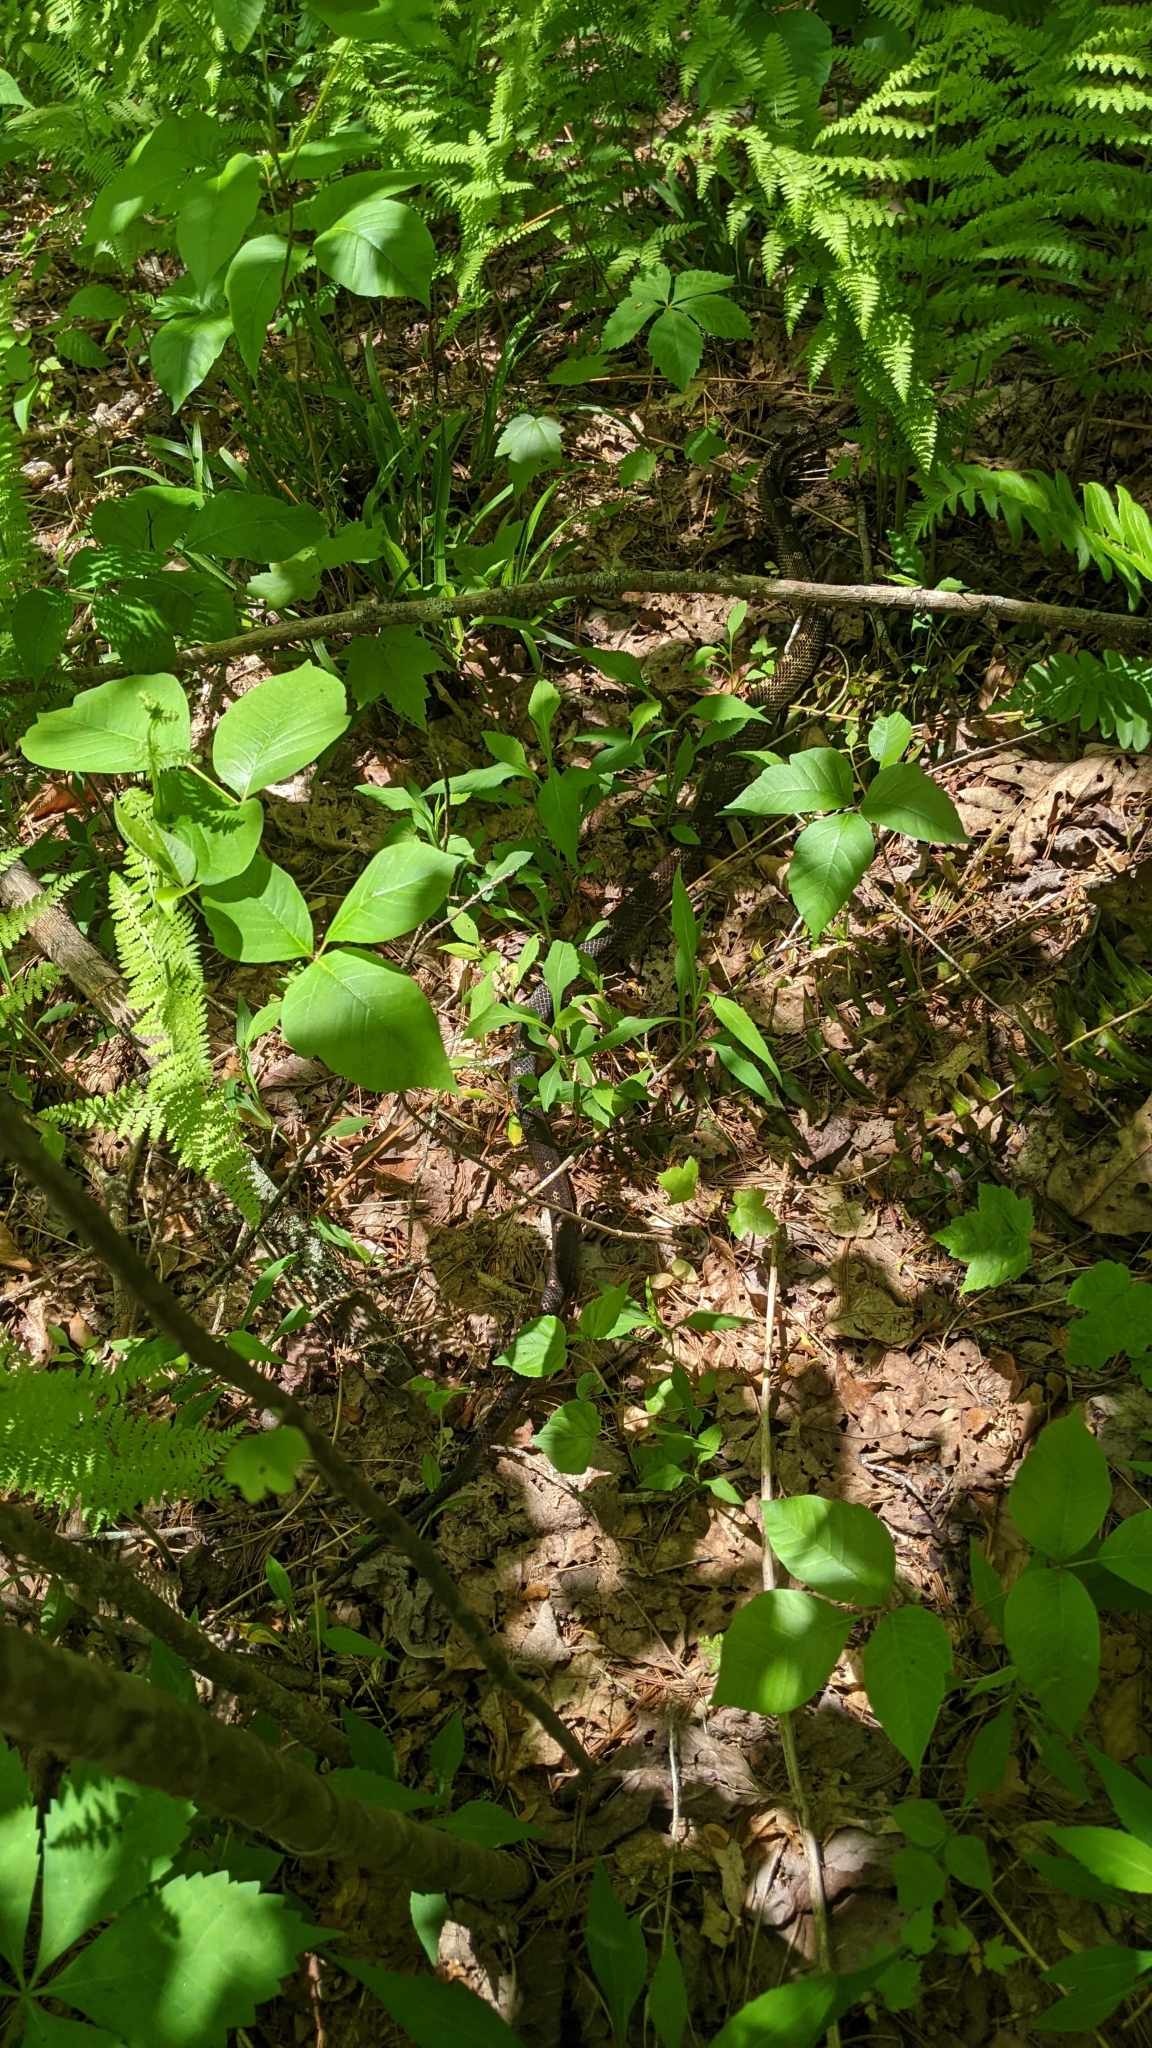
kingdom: Animalia
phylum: Chordata
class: Squamata
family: Colubridae
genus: Pantherophis
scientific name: Pantherophis spiloides
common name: Gray rat snake
